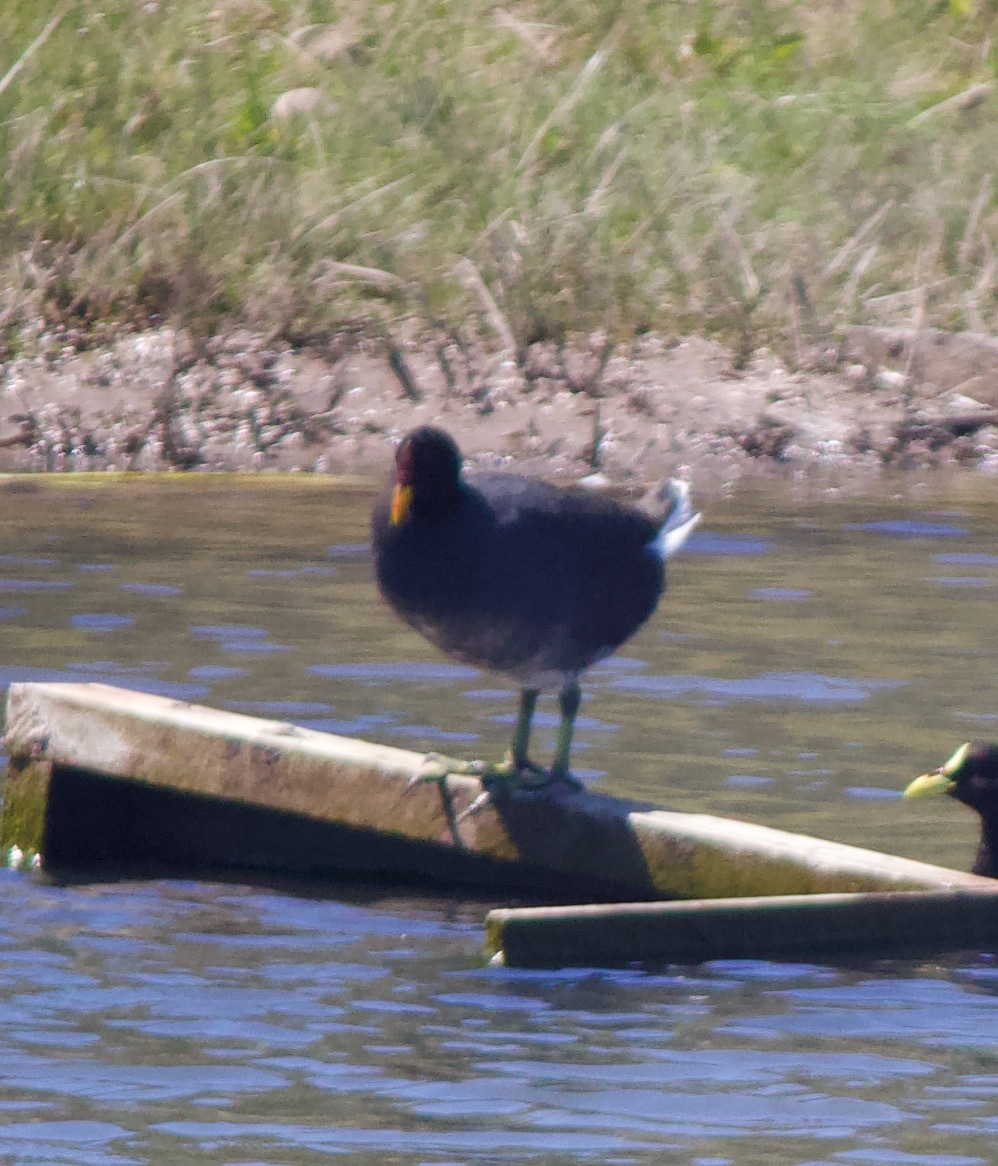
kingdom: Animalia
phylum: Chordata
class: Aves
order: Gruiformes
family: Rallidae
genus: Fulica
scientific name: Fulica rufifrons
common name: Red-fronted coot
